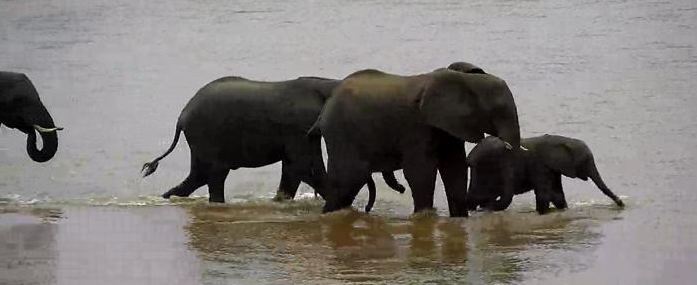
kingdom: Animalia
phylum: Chordata
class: Mammalia
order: Proboscidea
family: Elephantidae
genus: Loxodonta
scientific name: Loxodonta africana
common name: African elephant
